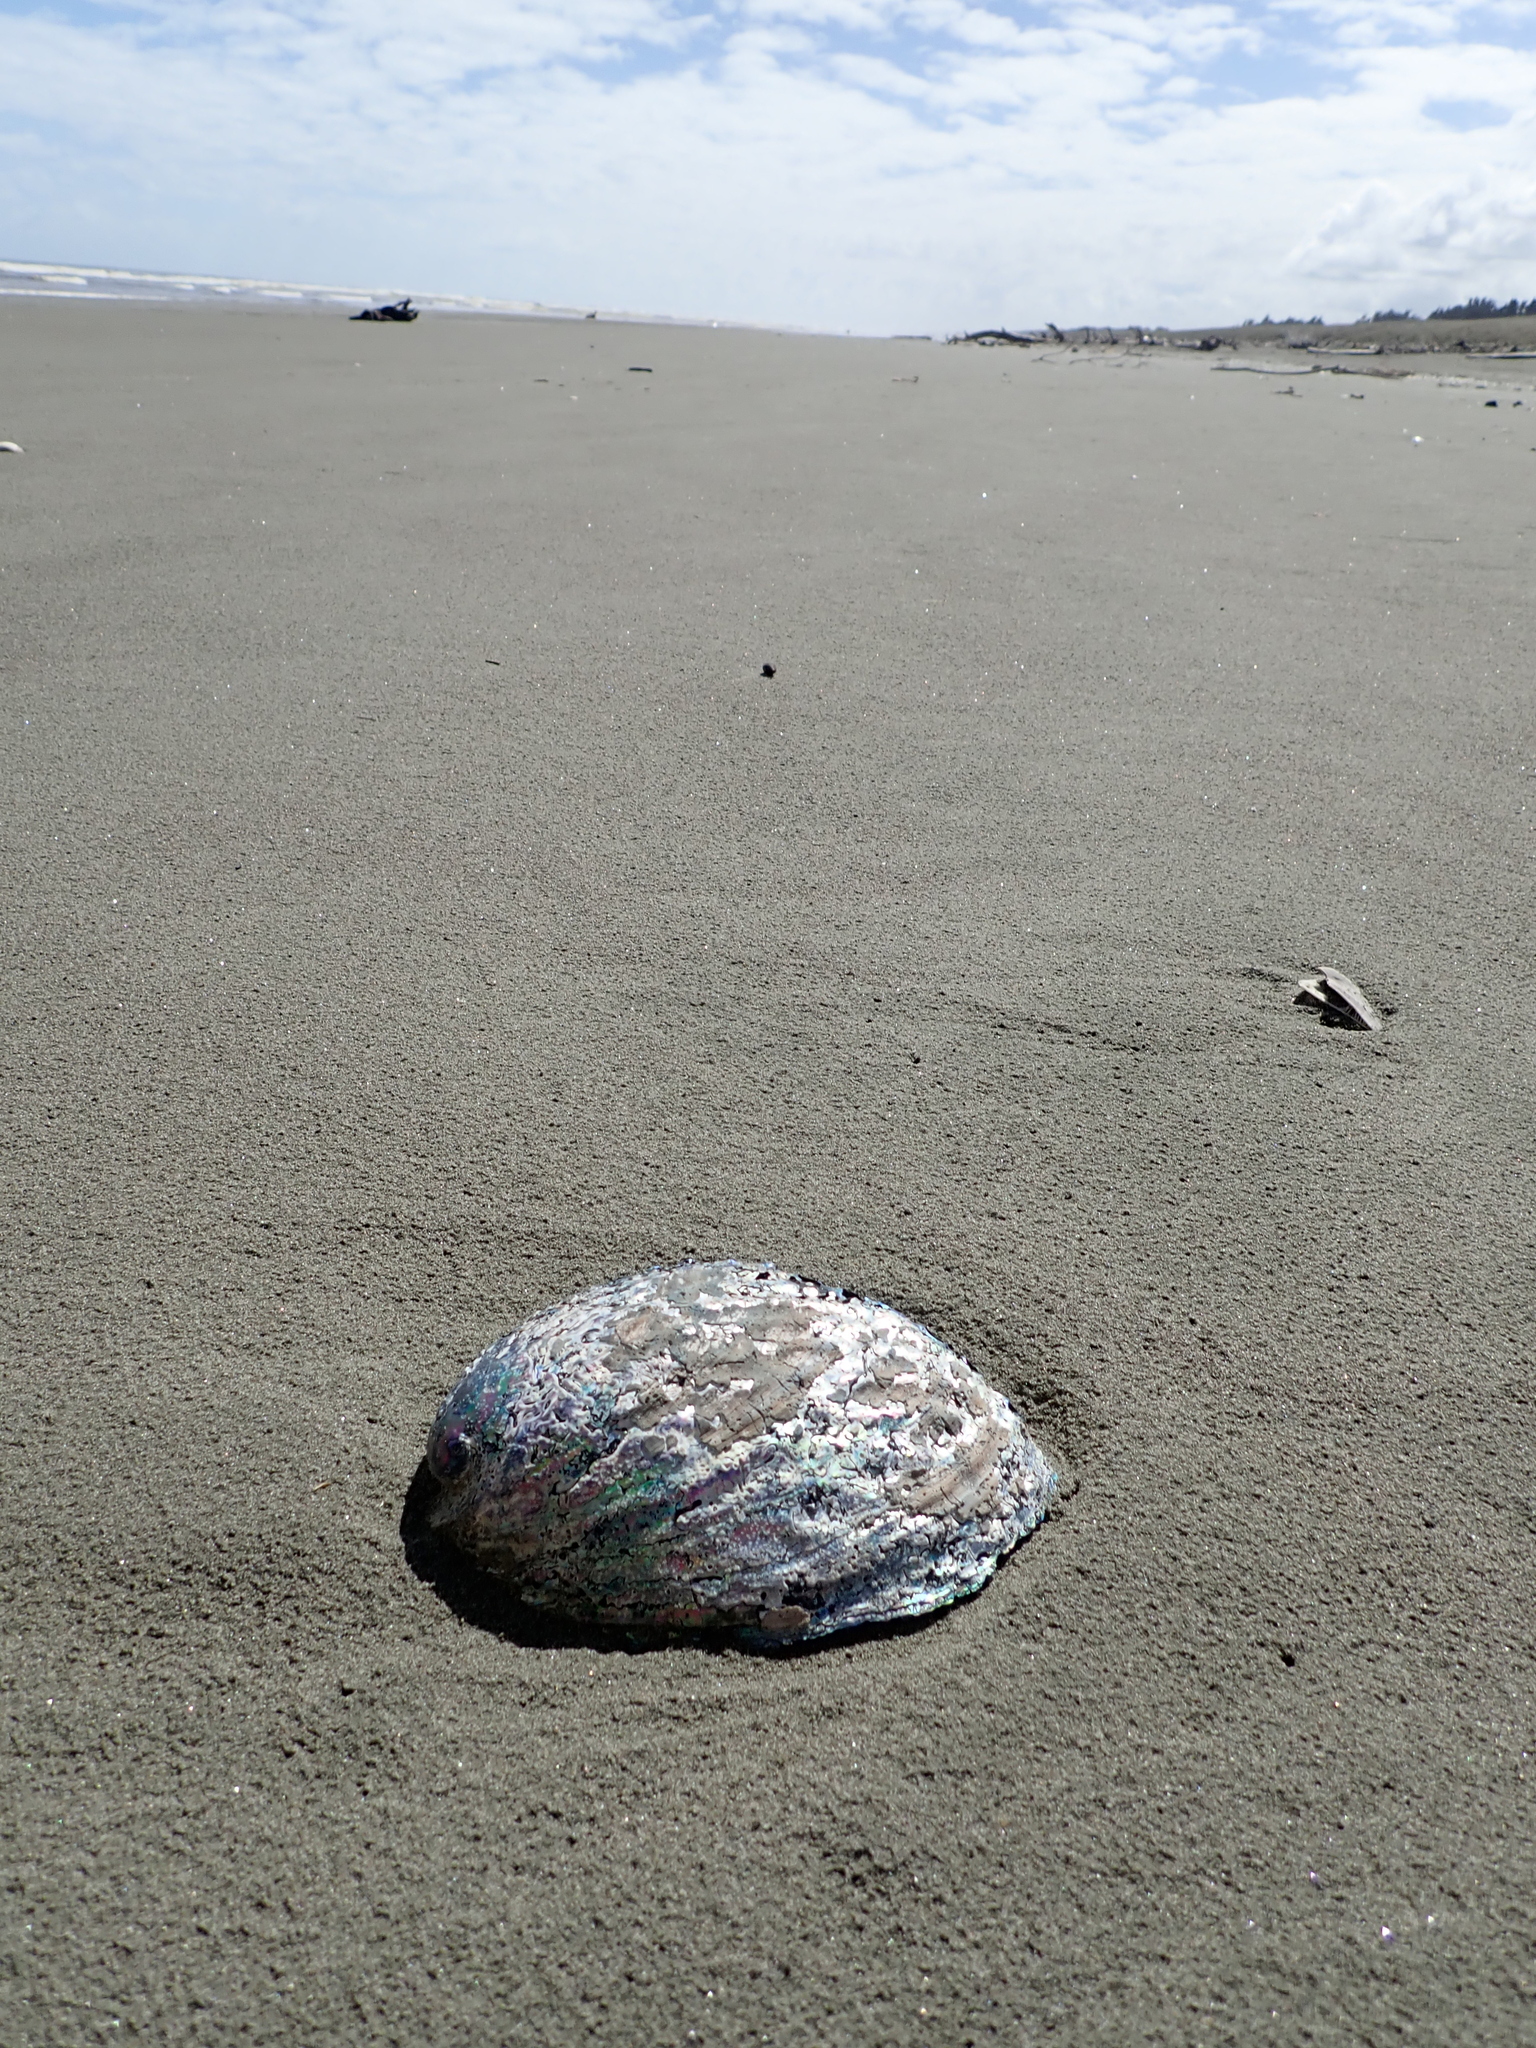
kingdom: Animalia
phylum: Mollusca
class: Gastropoda
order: Lepetellida
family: Haliotidae
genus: Haliotis
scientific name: Haliotis iris
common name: Abalone
